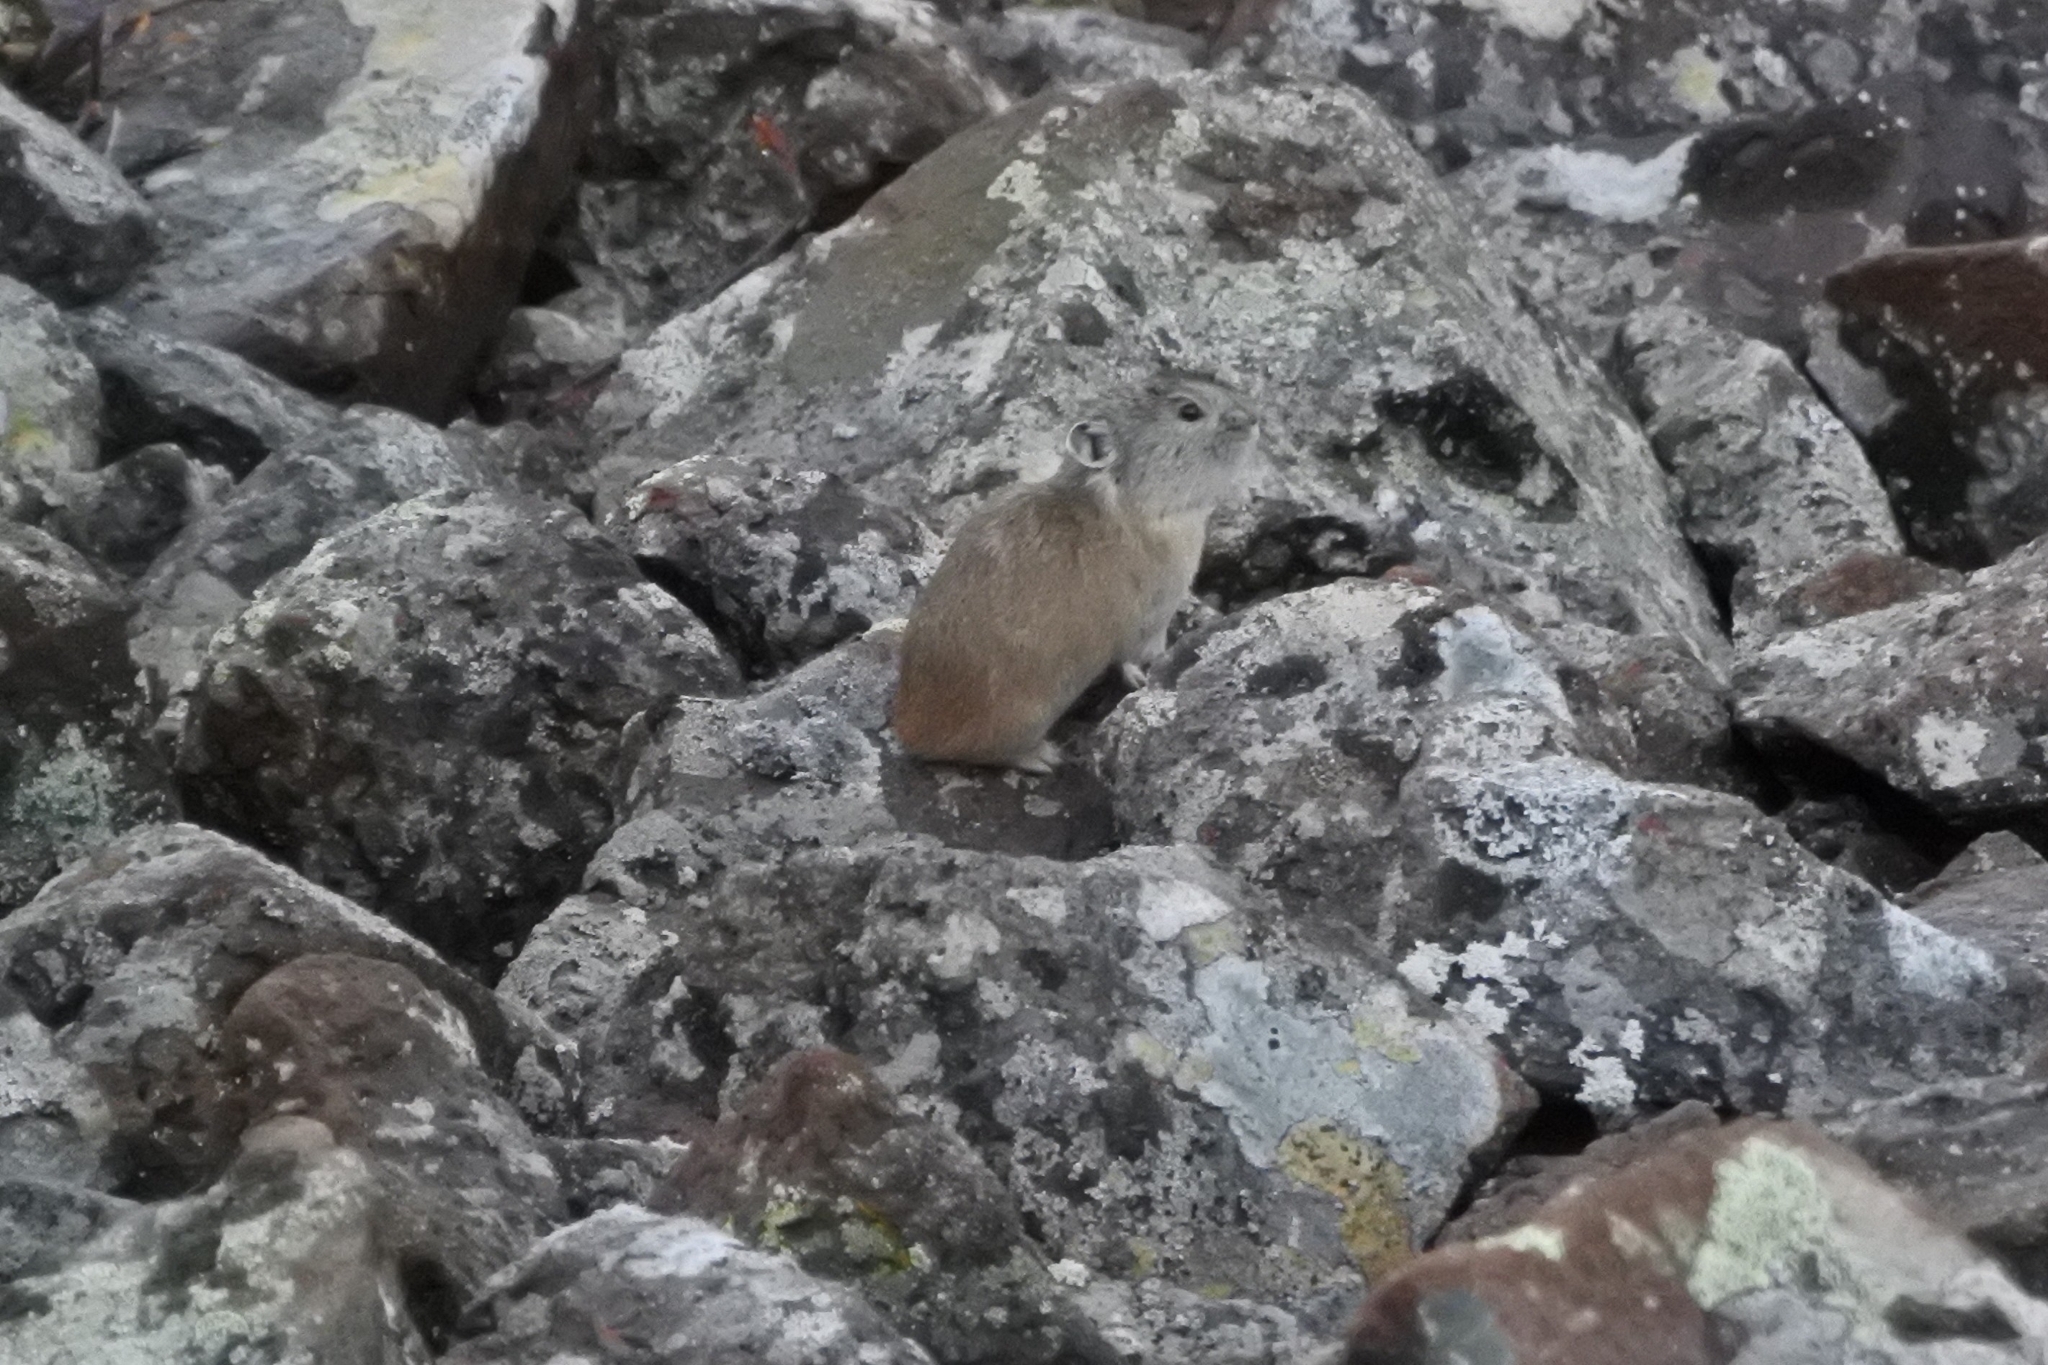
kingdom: Animalia
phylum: Chordata
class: Mammalia
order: Lagomorpha
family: Ochotonidae
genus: Ochotona
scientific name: Ochotona hyperborea
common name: Northern pika
